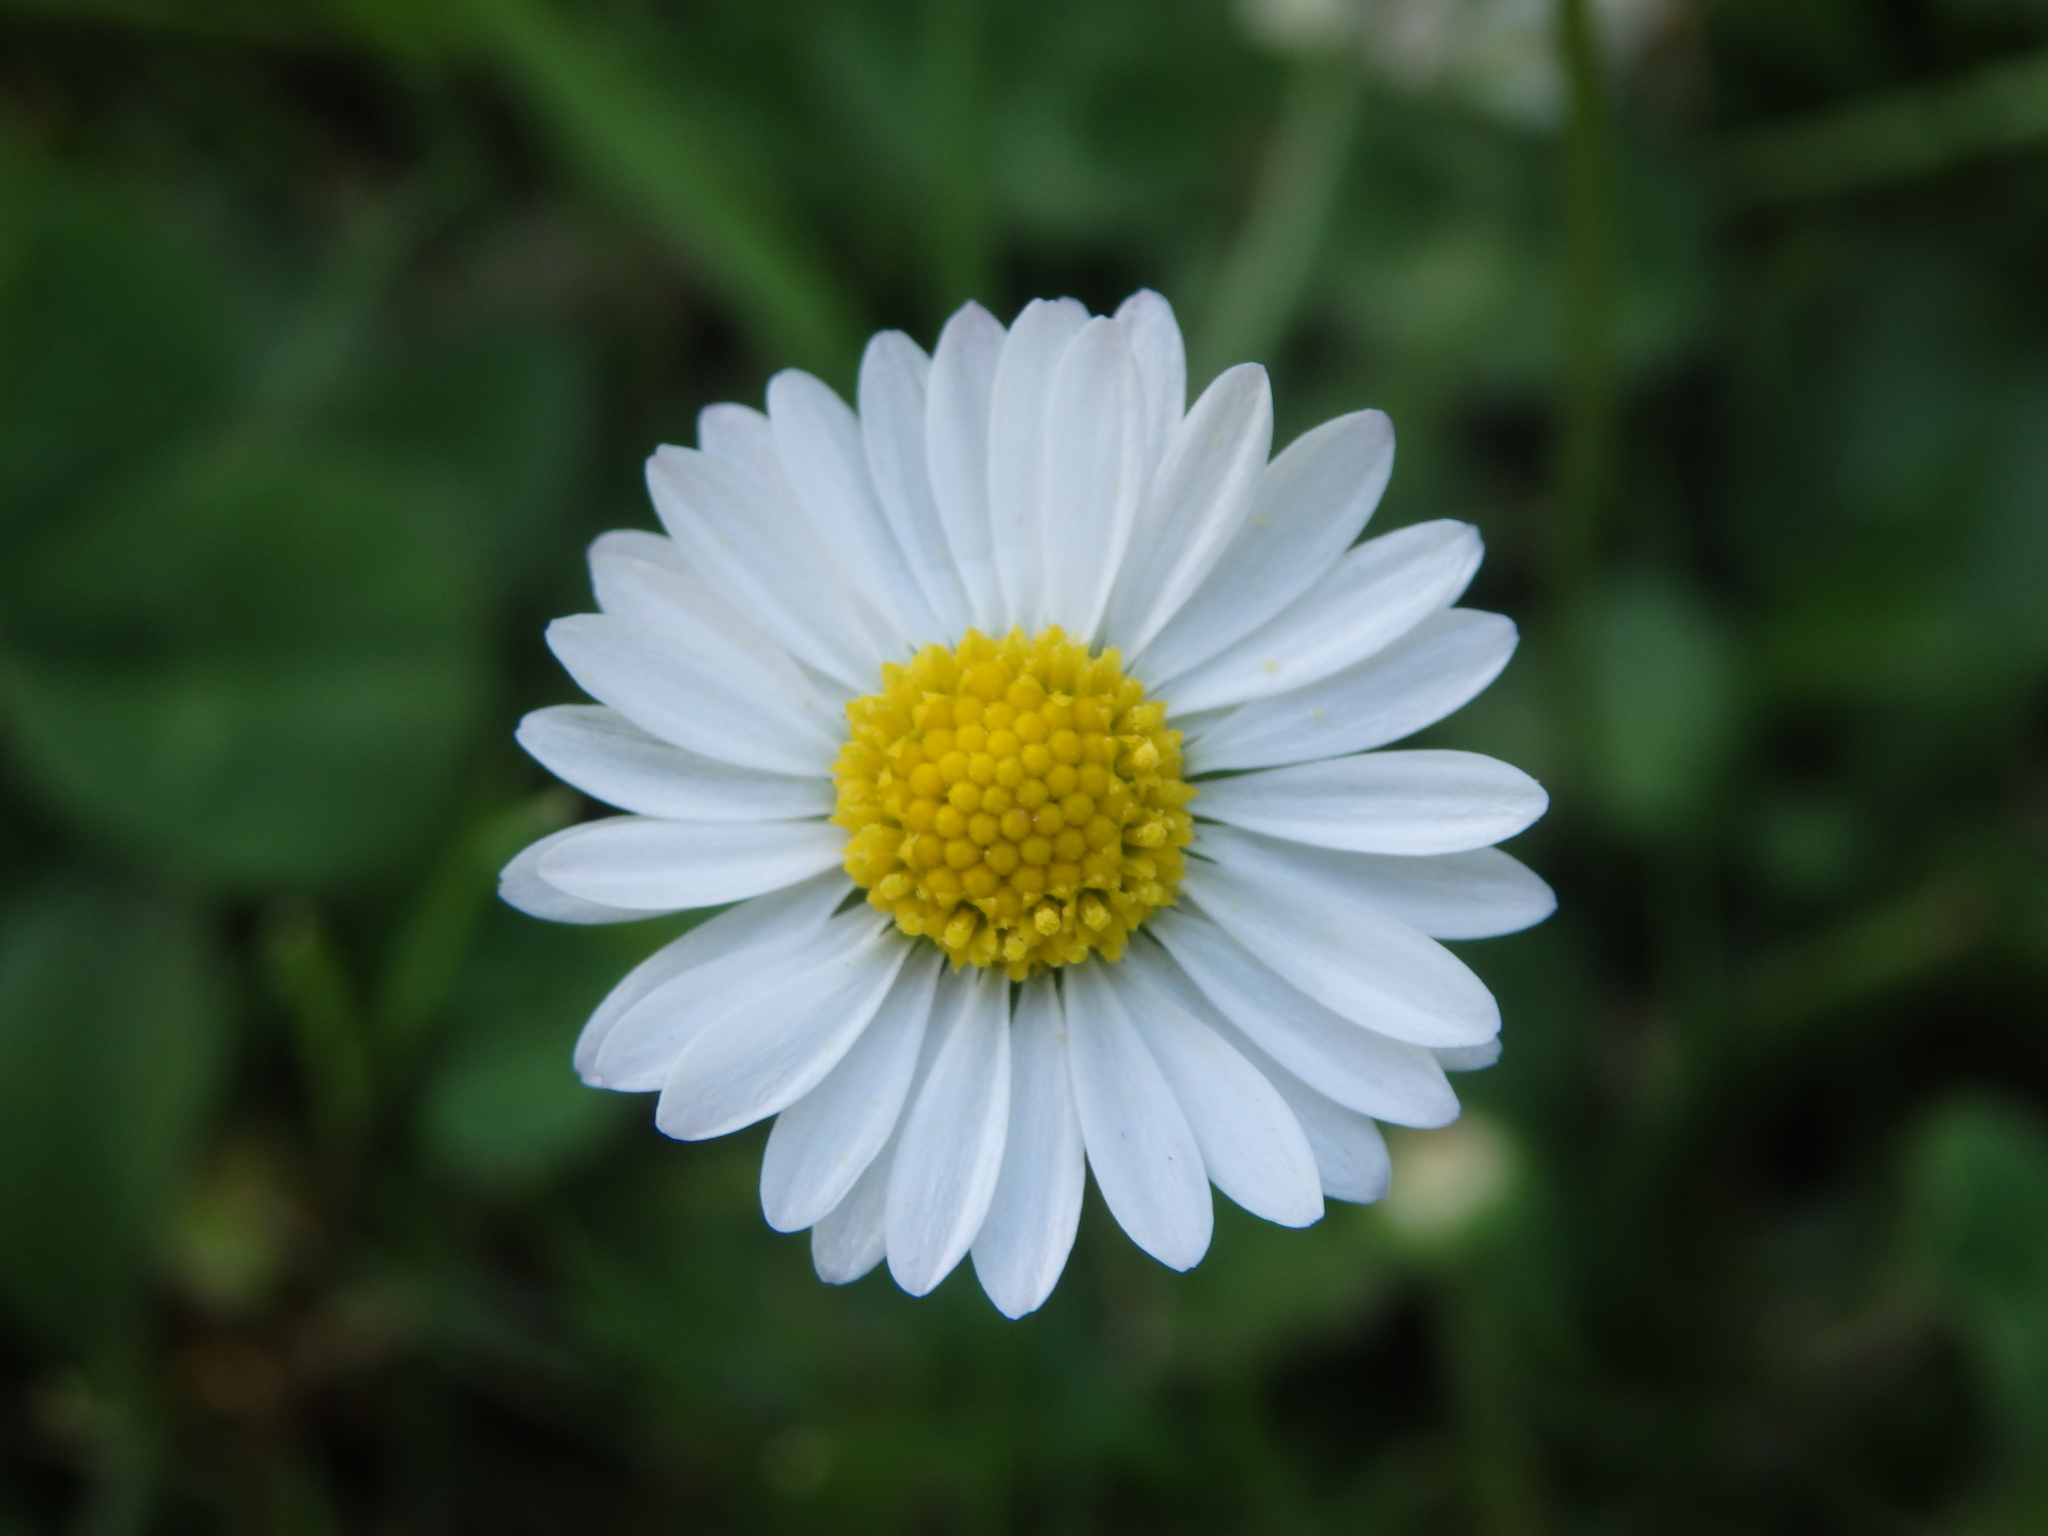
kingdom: Plantae
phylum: Tracheophyta
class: Magnoliopsida
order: Asterales
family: Asteraceae
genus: Bellis
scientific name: Bellis perennis
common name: Lawndaisy
